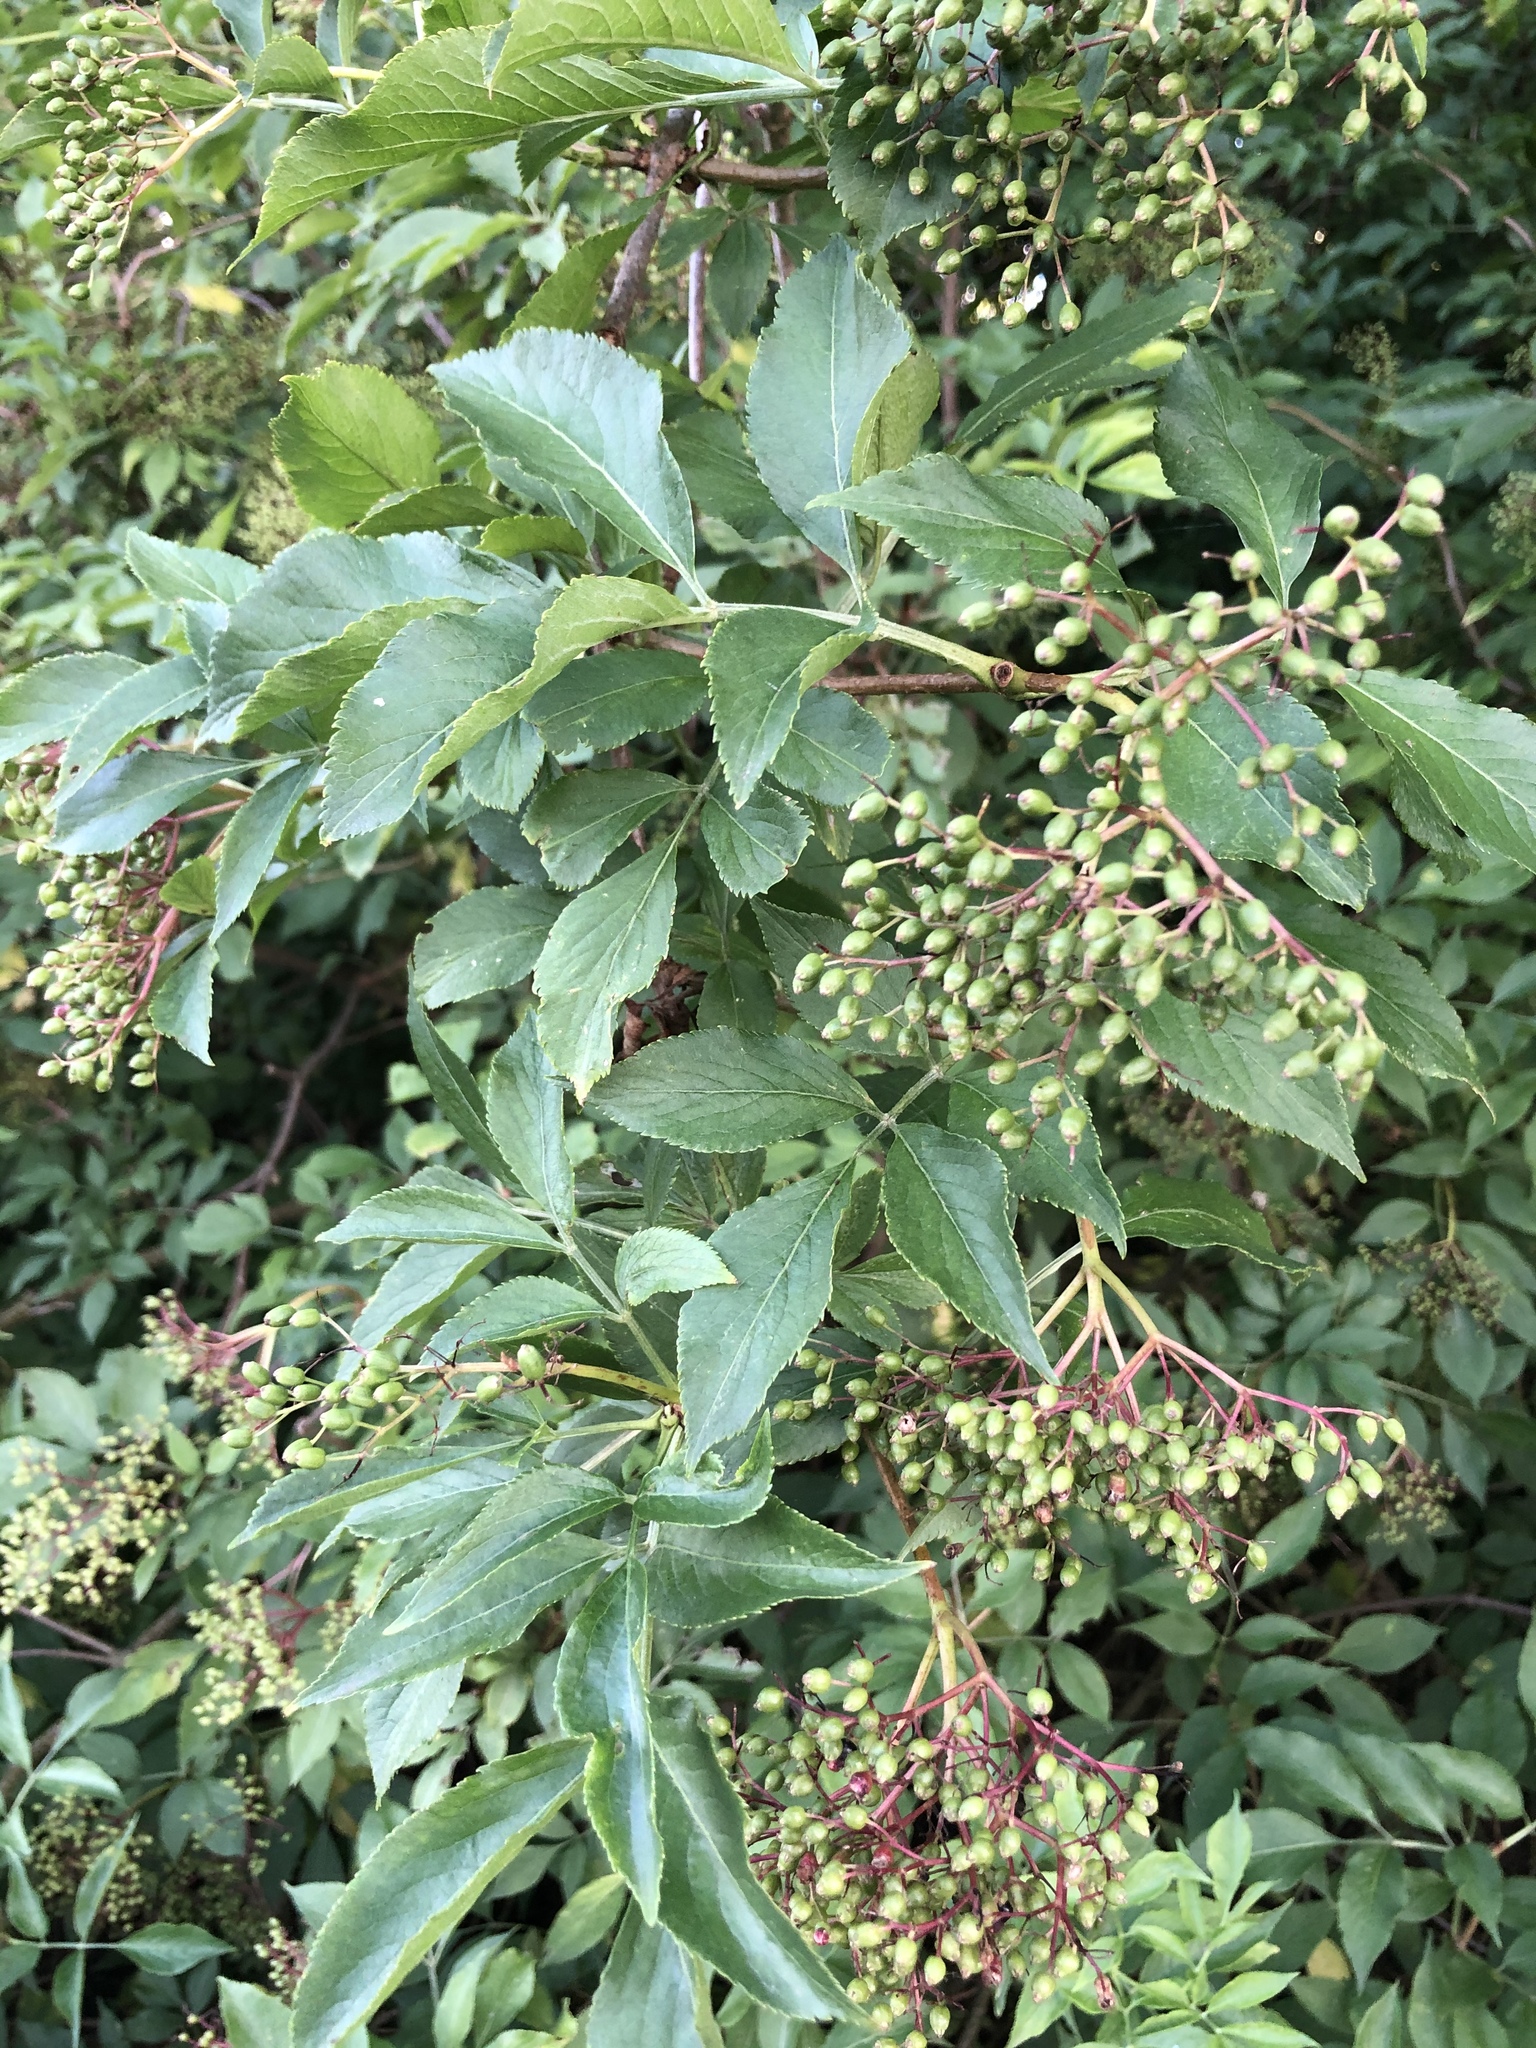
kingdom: Plantae
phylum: Tracheophyta
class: Magnoliopsida
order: Dipsacales
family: Viburnaceae
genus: Sambucus
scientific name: Sambucus nigra
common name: Elder
